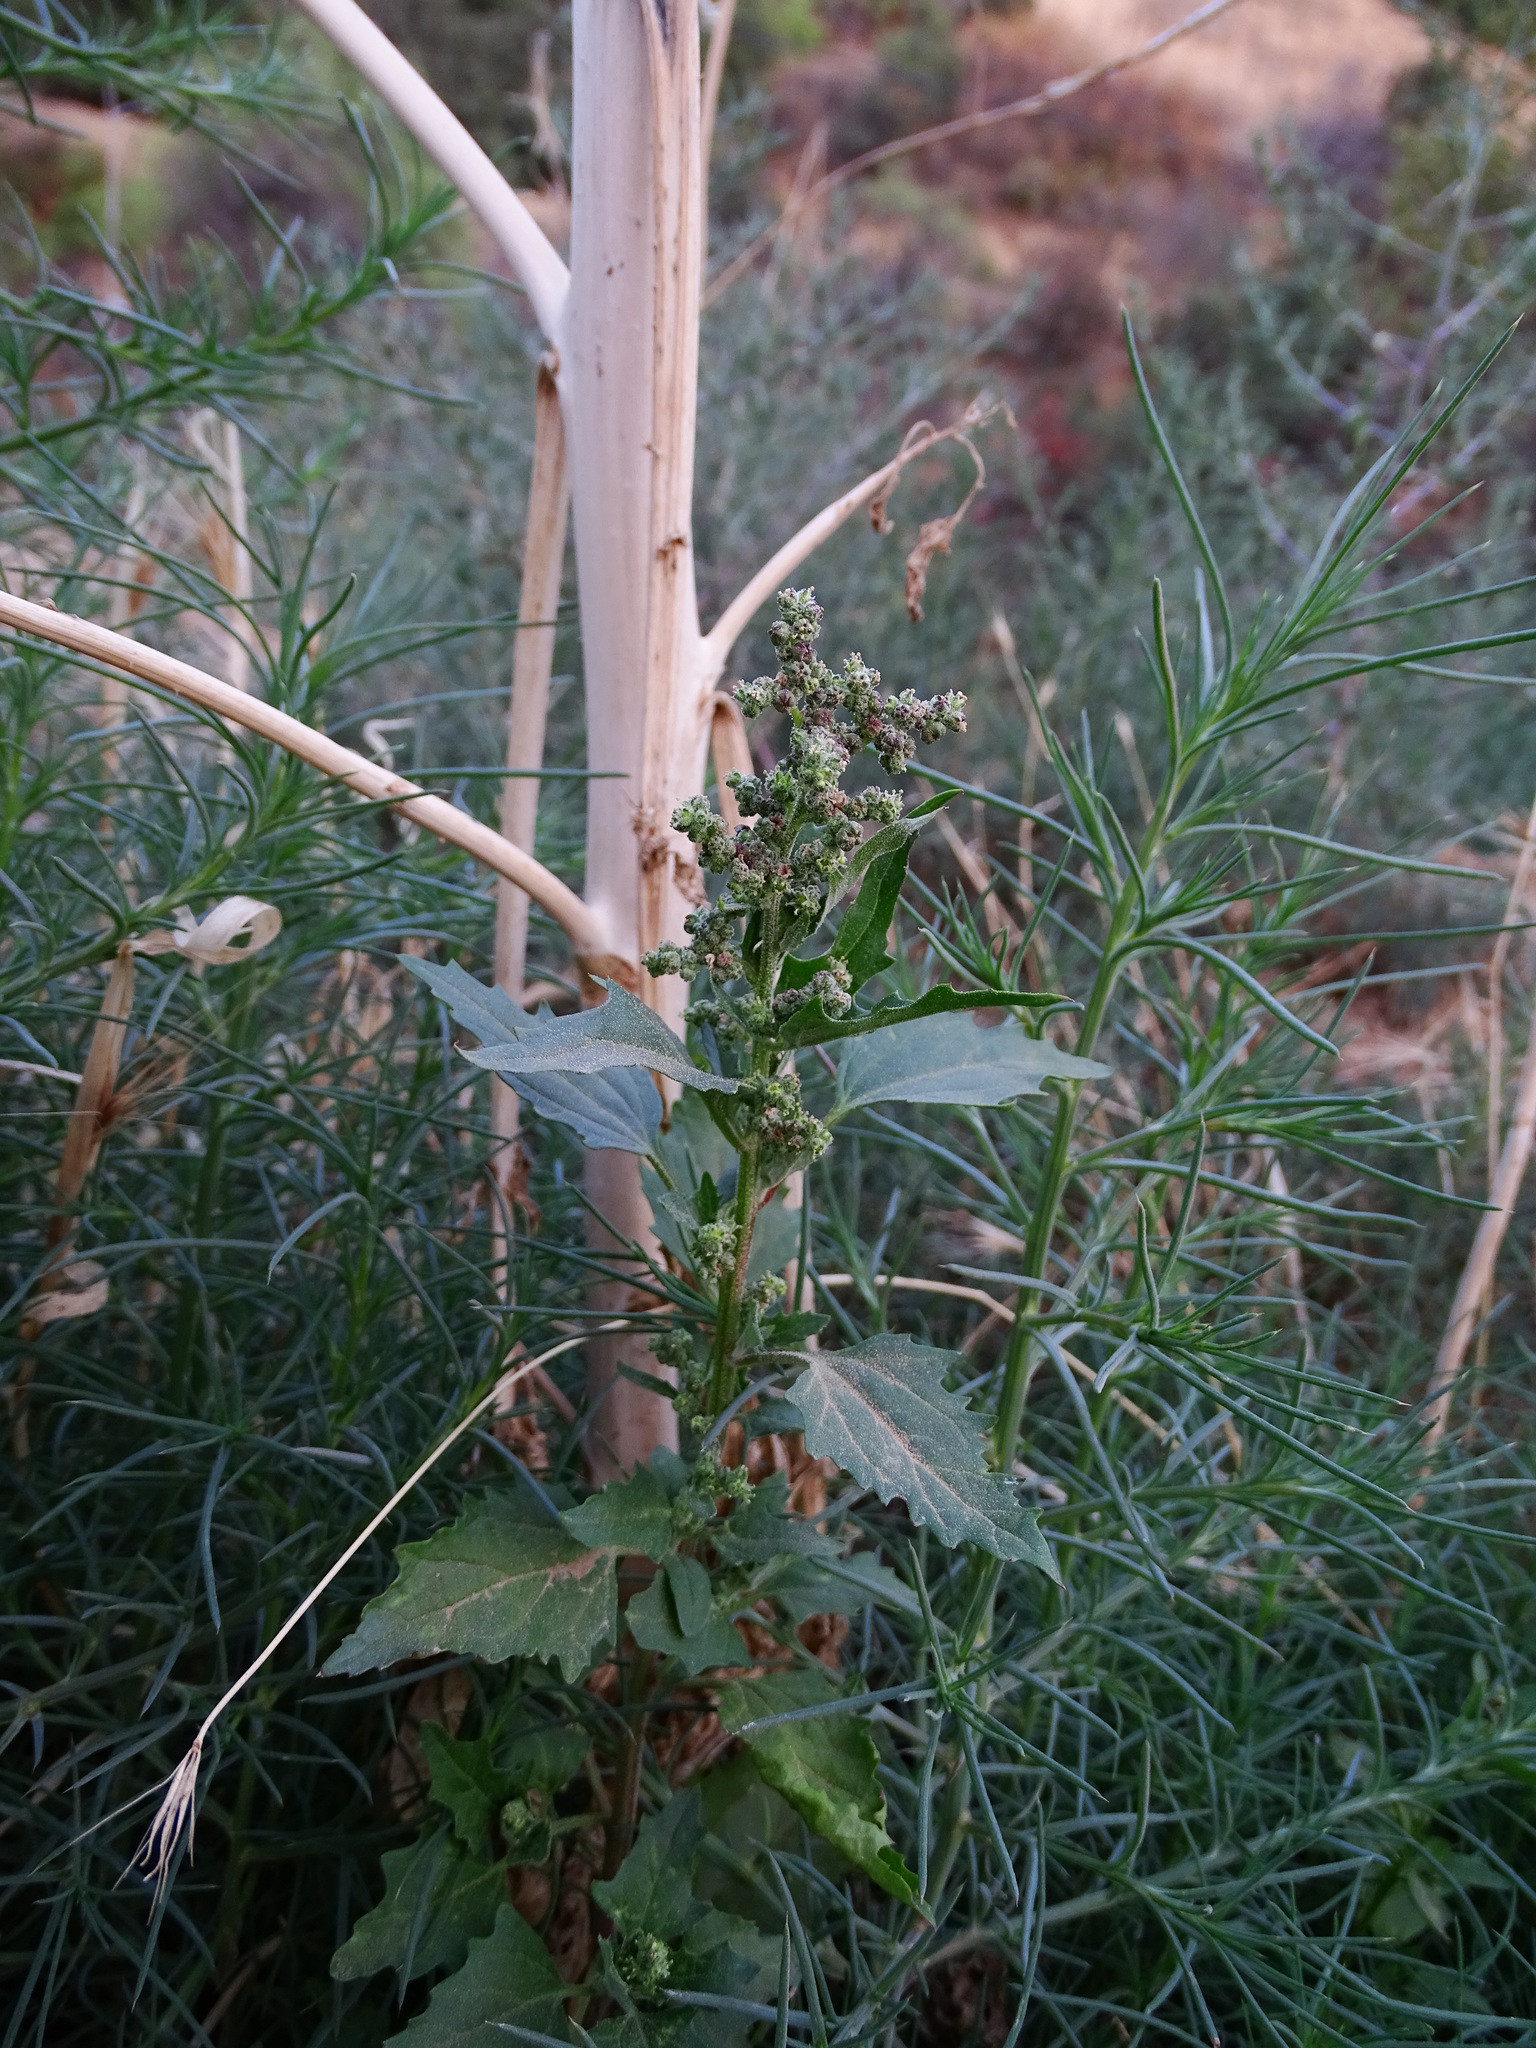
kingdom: Plantae
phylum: Tracheophyta
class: Magnoliopsida
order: Caryophyllales
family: Amaranthaceae
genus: Chenopodiastrum
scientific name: Chenopodiastrum murale
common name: Sowbane
